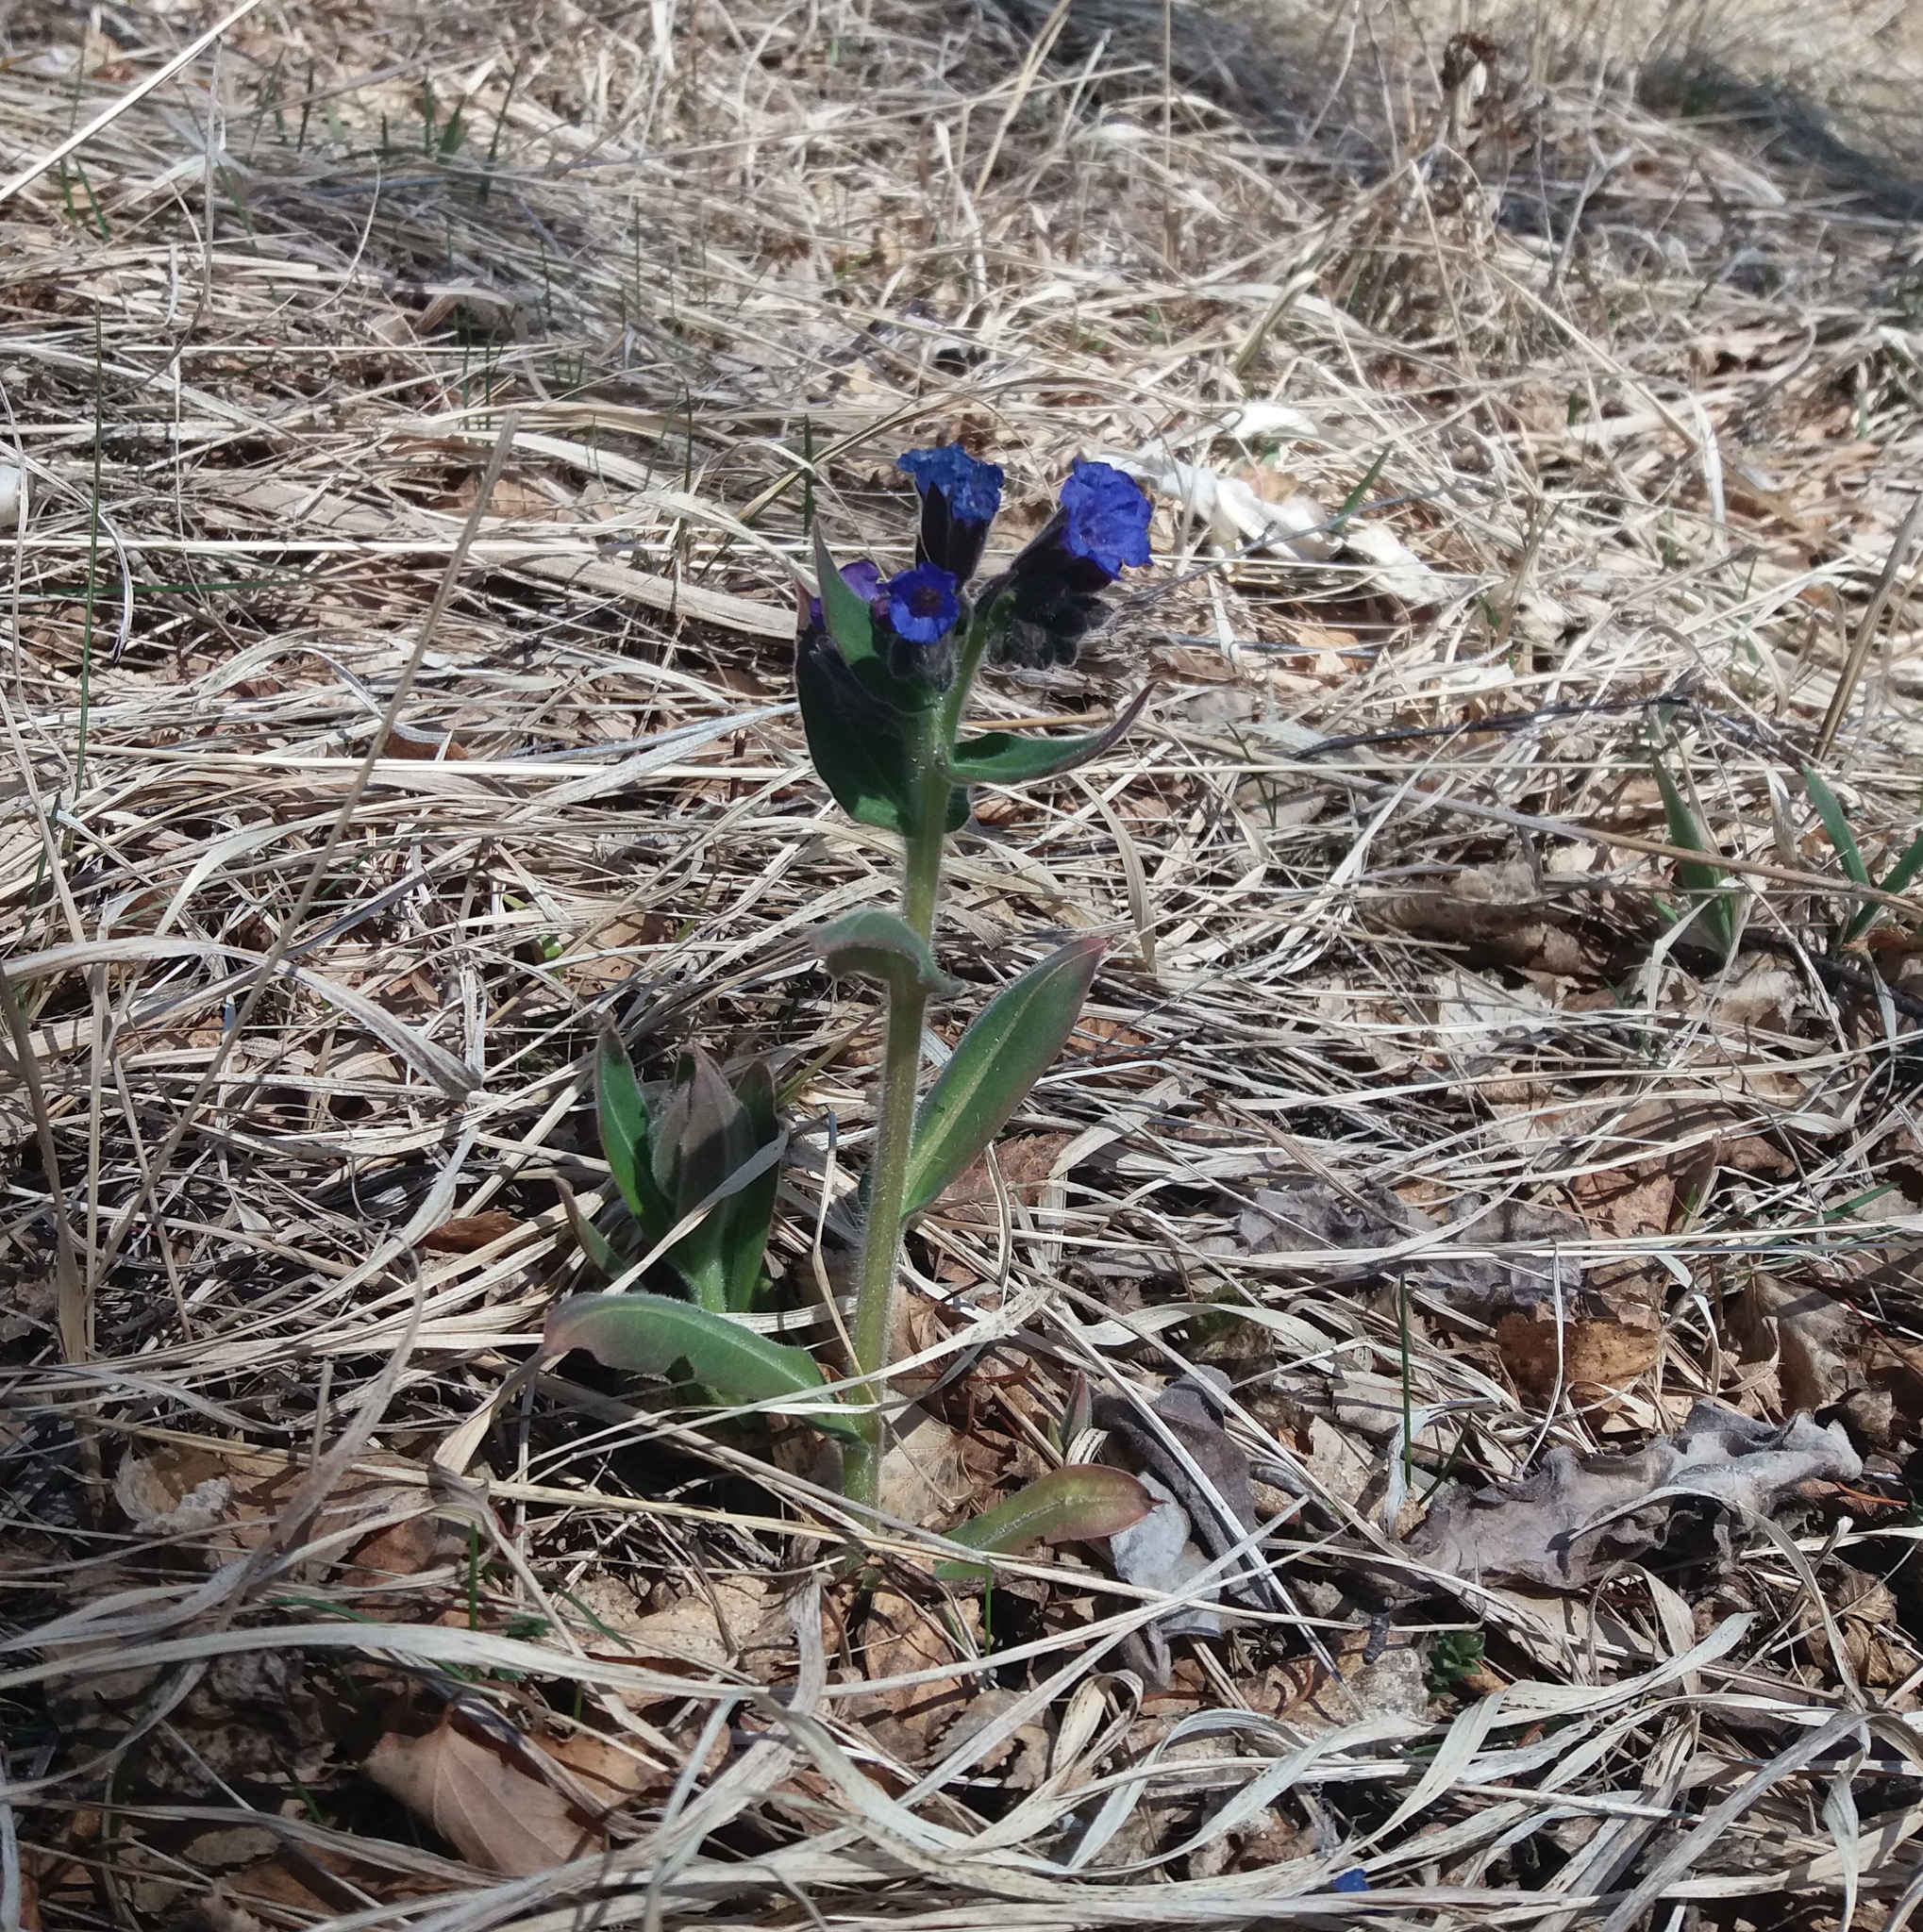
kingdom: Plantae
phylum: Tracheophyta
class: Magnoliopsida
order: Boraginales
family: Boraginaceae
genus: Pulmonaria
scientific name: Pulmonaria mollis
